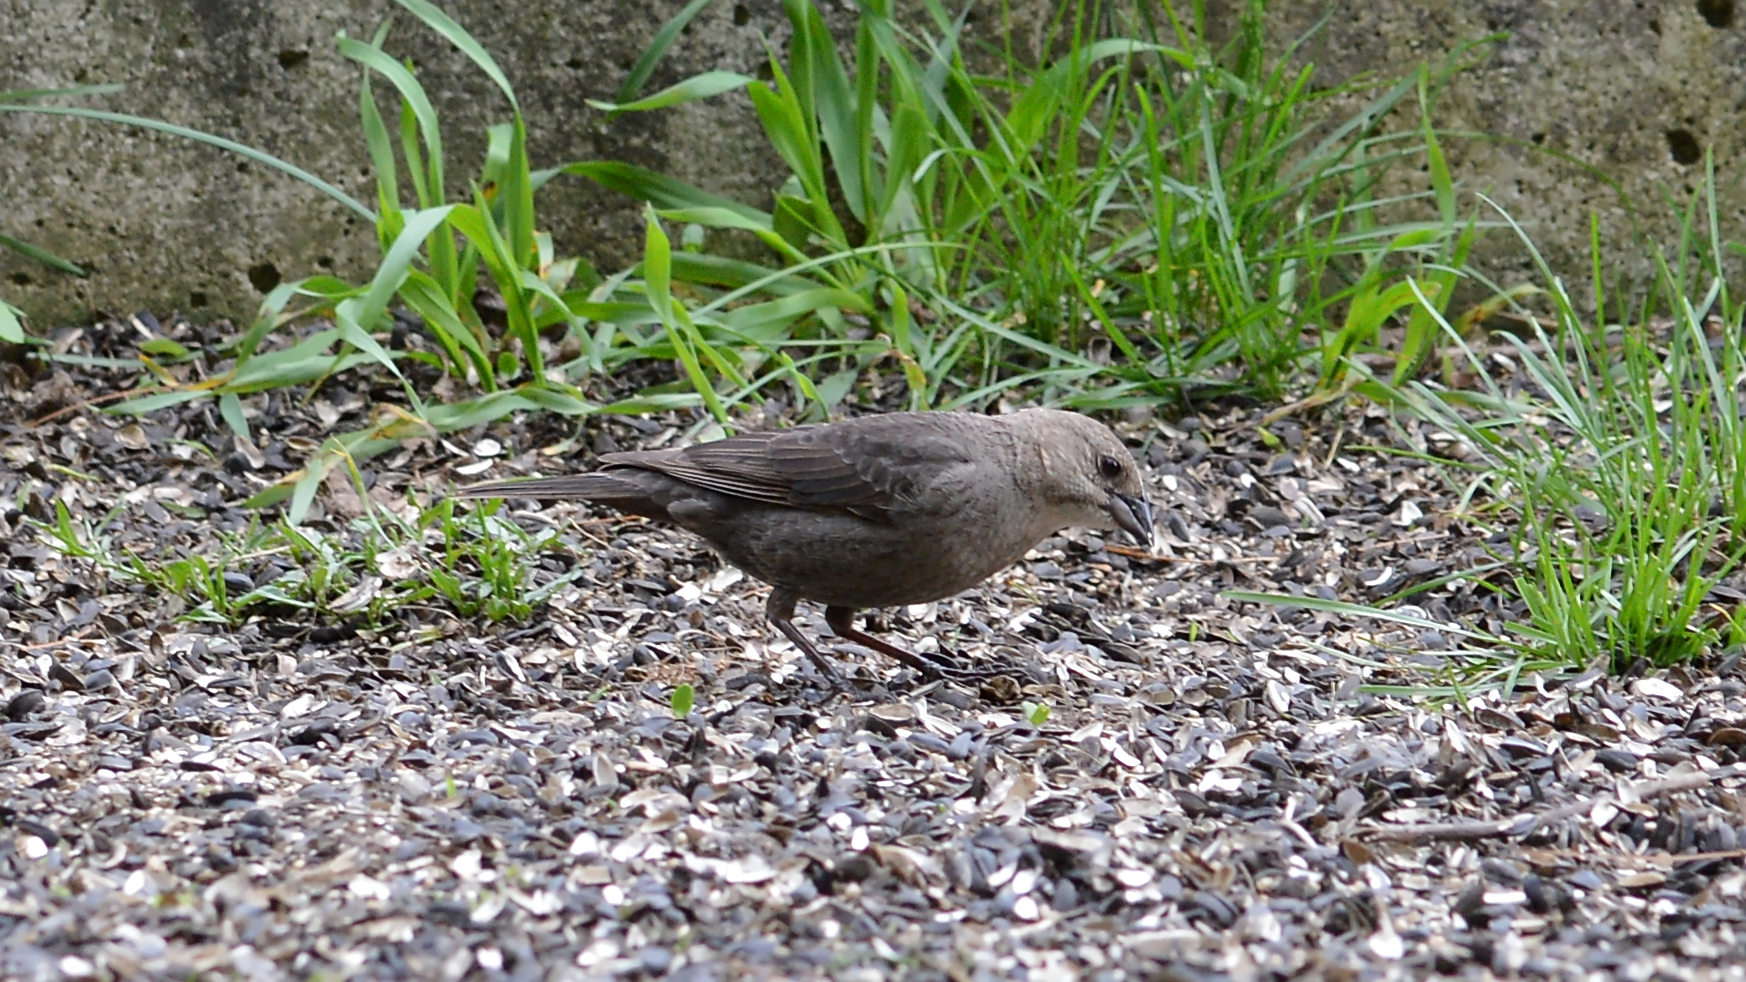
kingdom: Animalia
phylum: Chordata
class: Aves
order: Passeriformes
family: Icteridae
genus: Molothrus
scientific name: Molothrus ater
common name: Brown-headed cowbird
